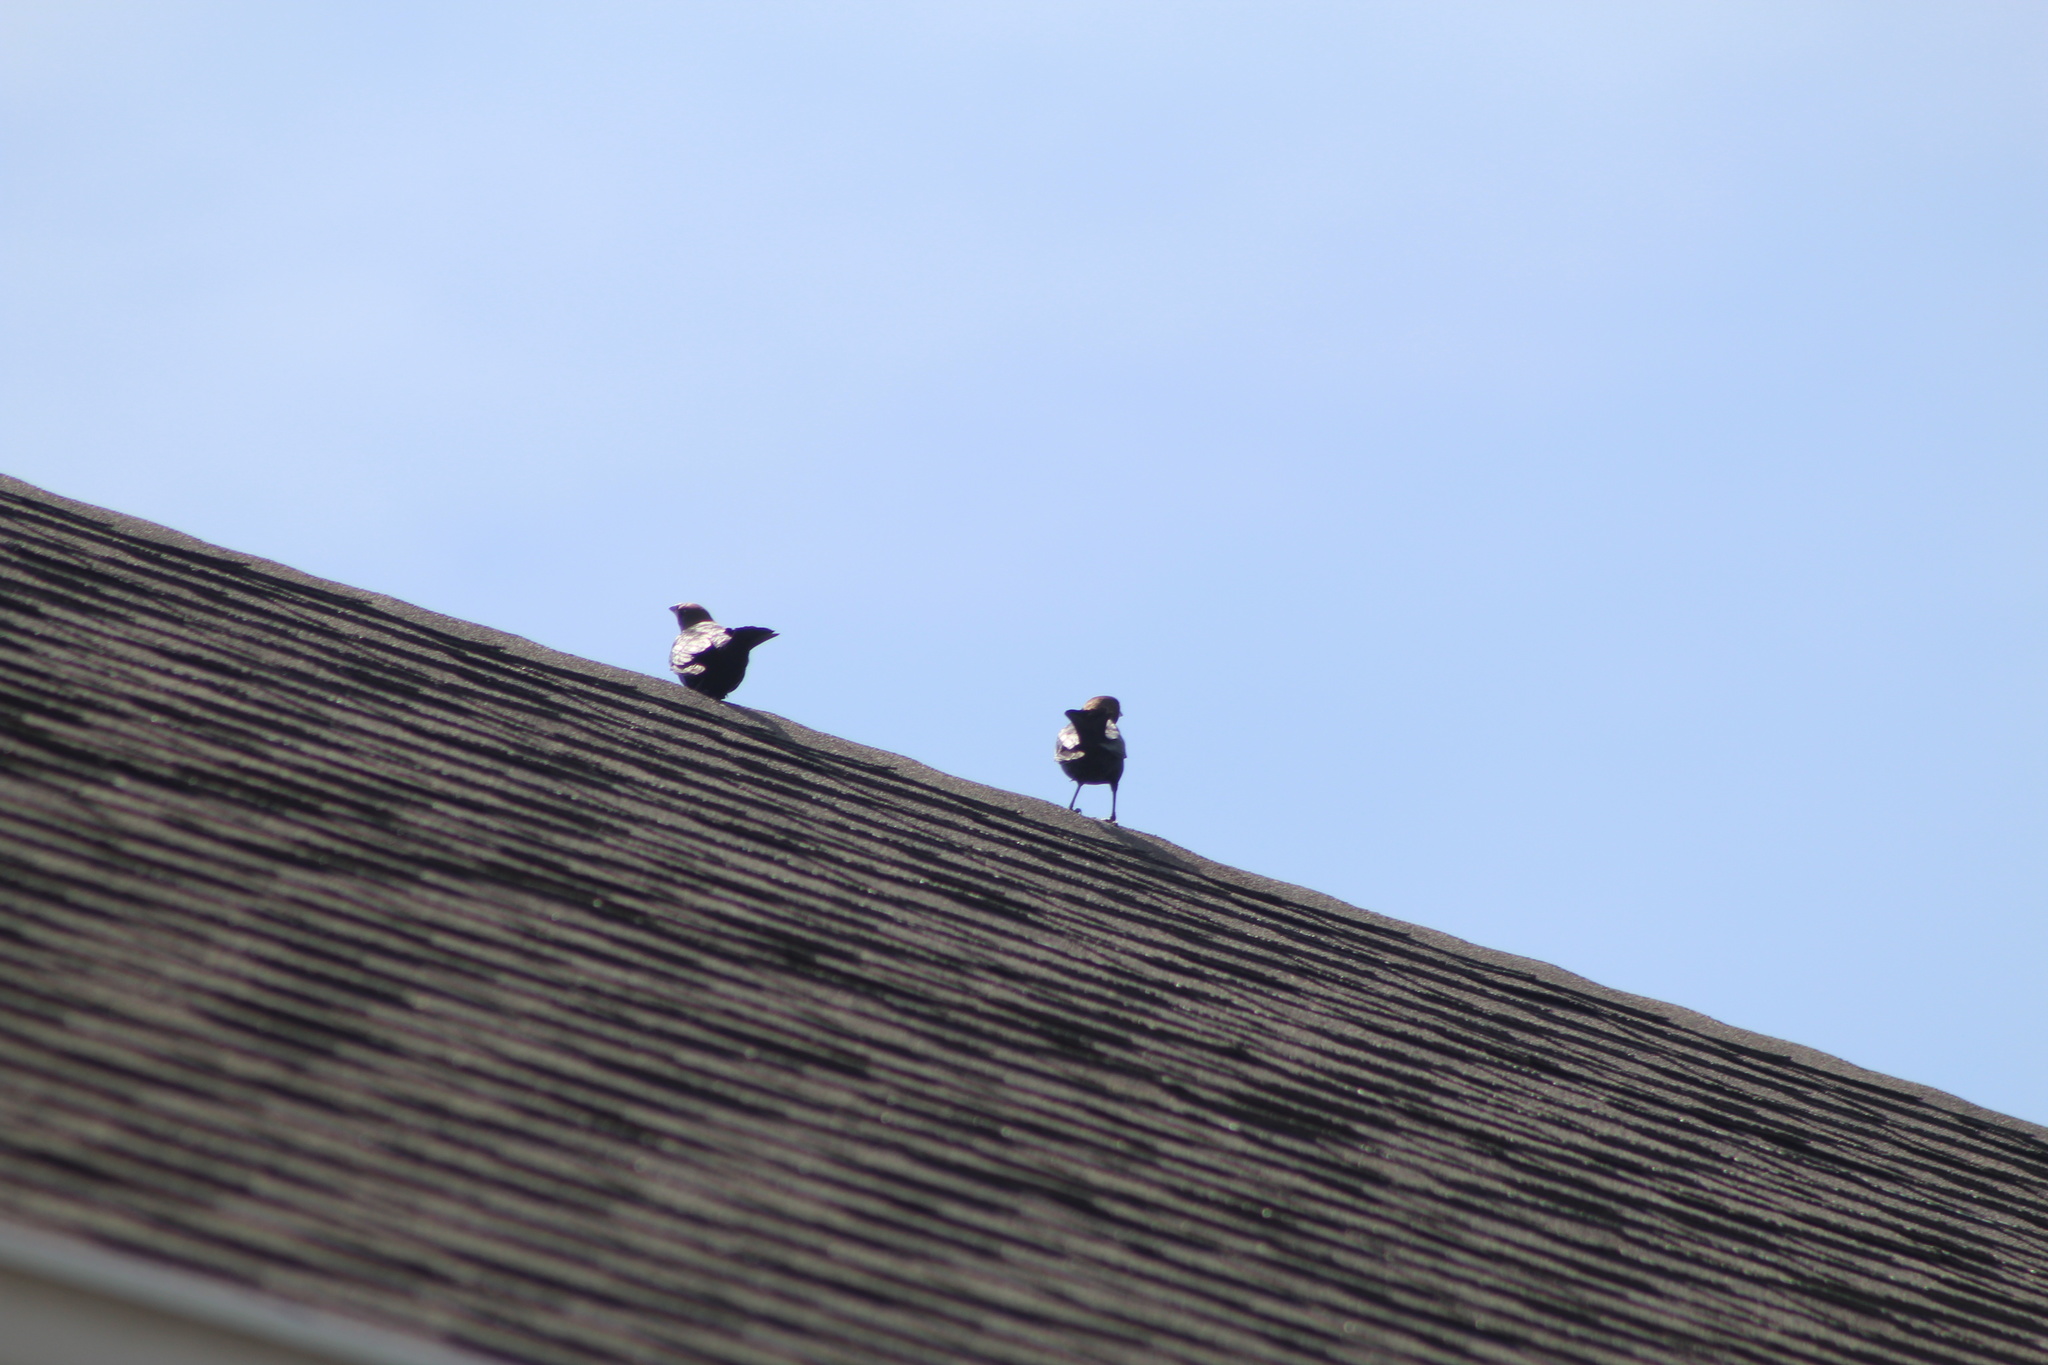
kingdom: Animalia
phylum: Chordata
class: Aves
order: Passeriformes
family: Icteridae
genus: Molothrus
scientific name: Molothrus ater
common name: Brown-headed cowbird
